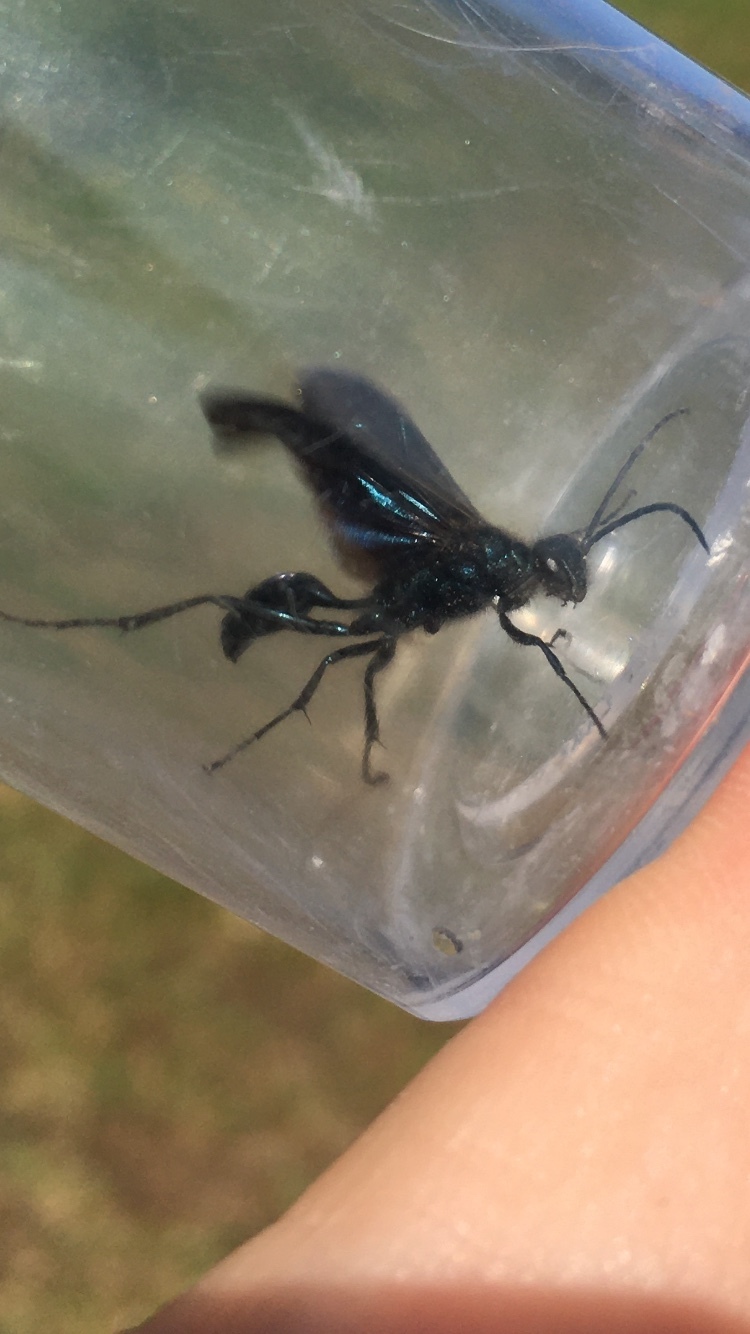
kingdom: Animalia
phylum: Arthropoda
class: Insecta
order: Hymenoptera
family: Sphecidae
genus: Chalybion
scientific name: Chalybion californicum
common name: Mud dauber
